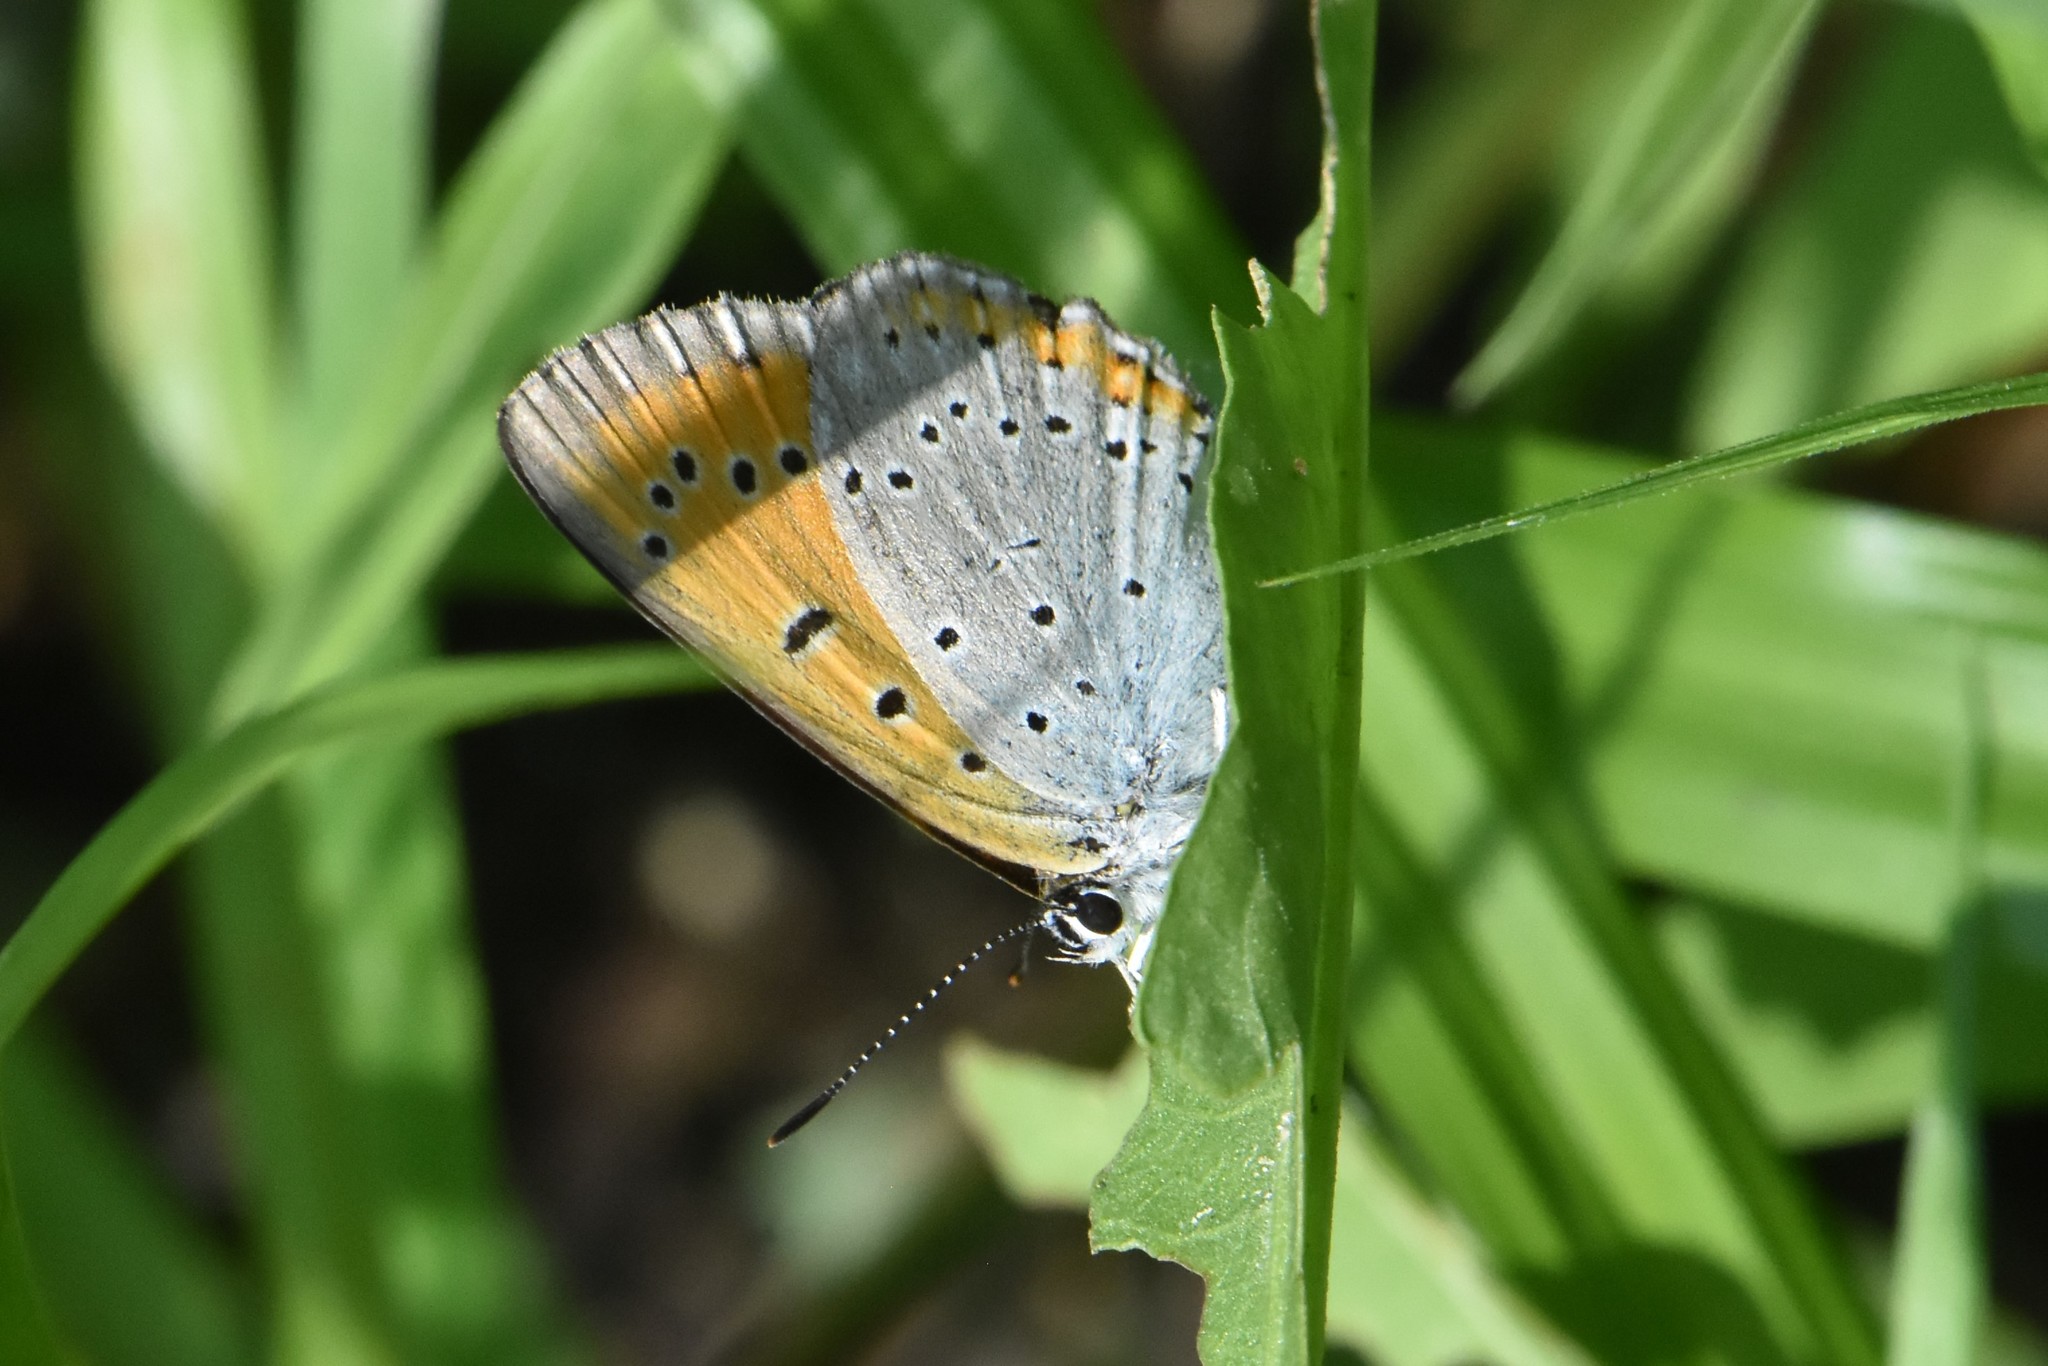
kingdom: Animalia
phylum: Arthropoda
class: Insecta
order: Lepidoptera
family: Lycaenidae
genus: Lycaena
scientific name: Lycaena dispar
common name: Large copper
